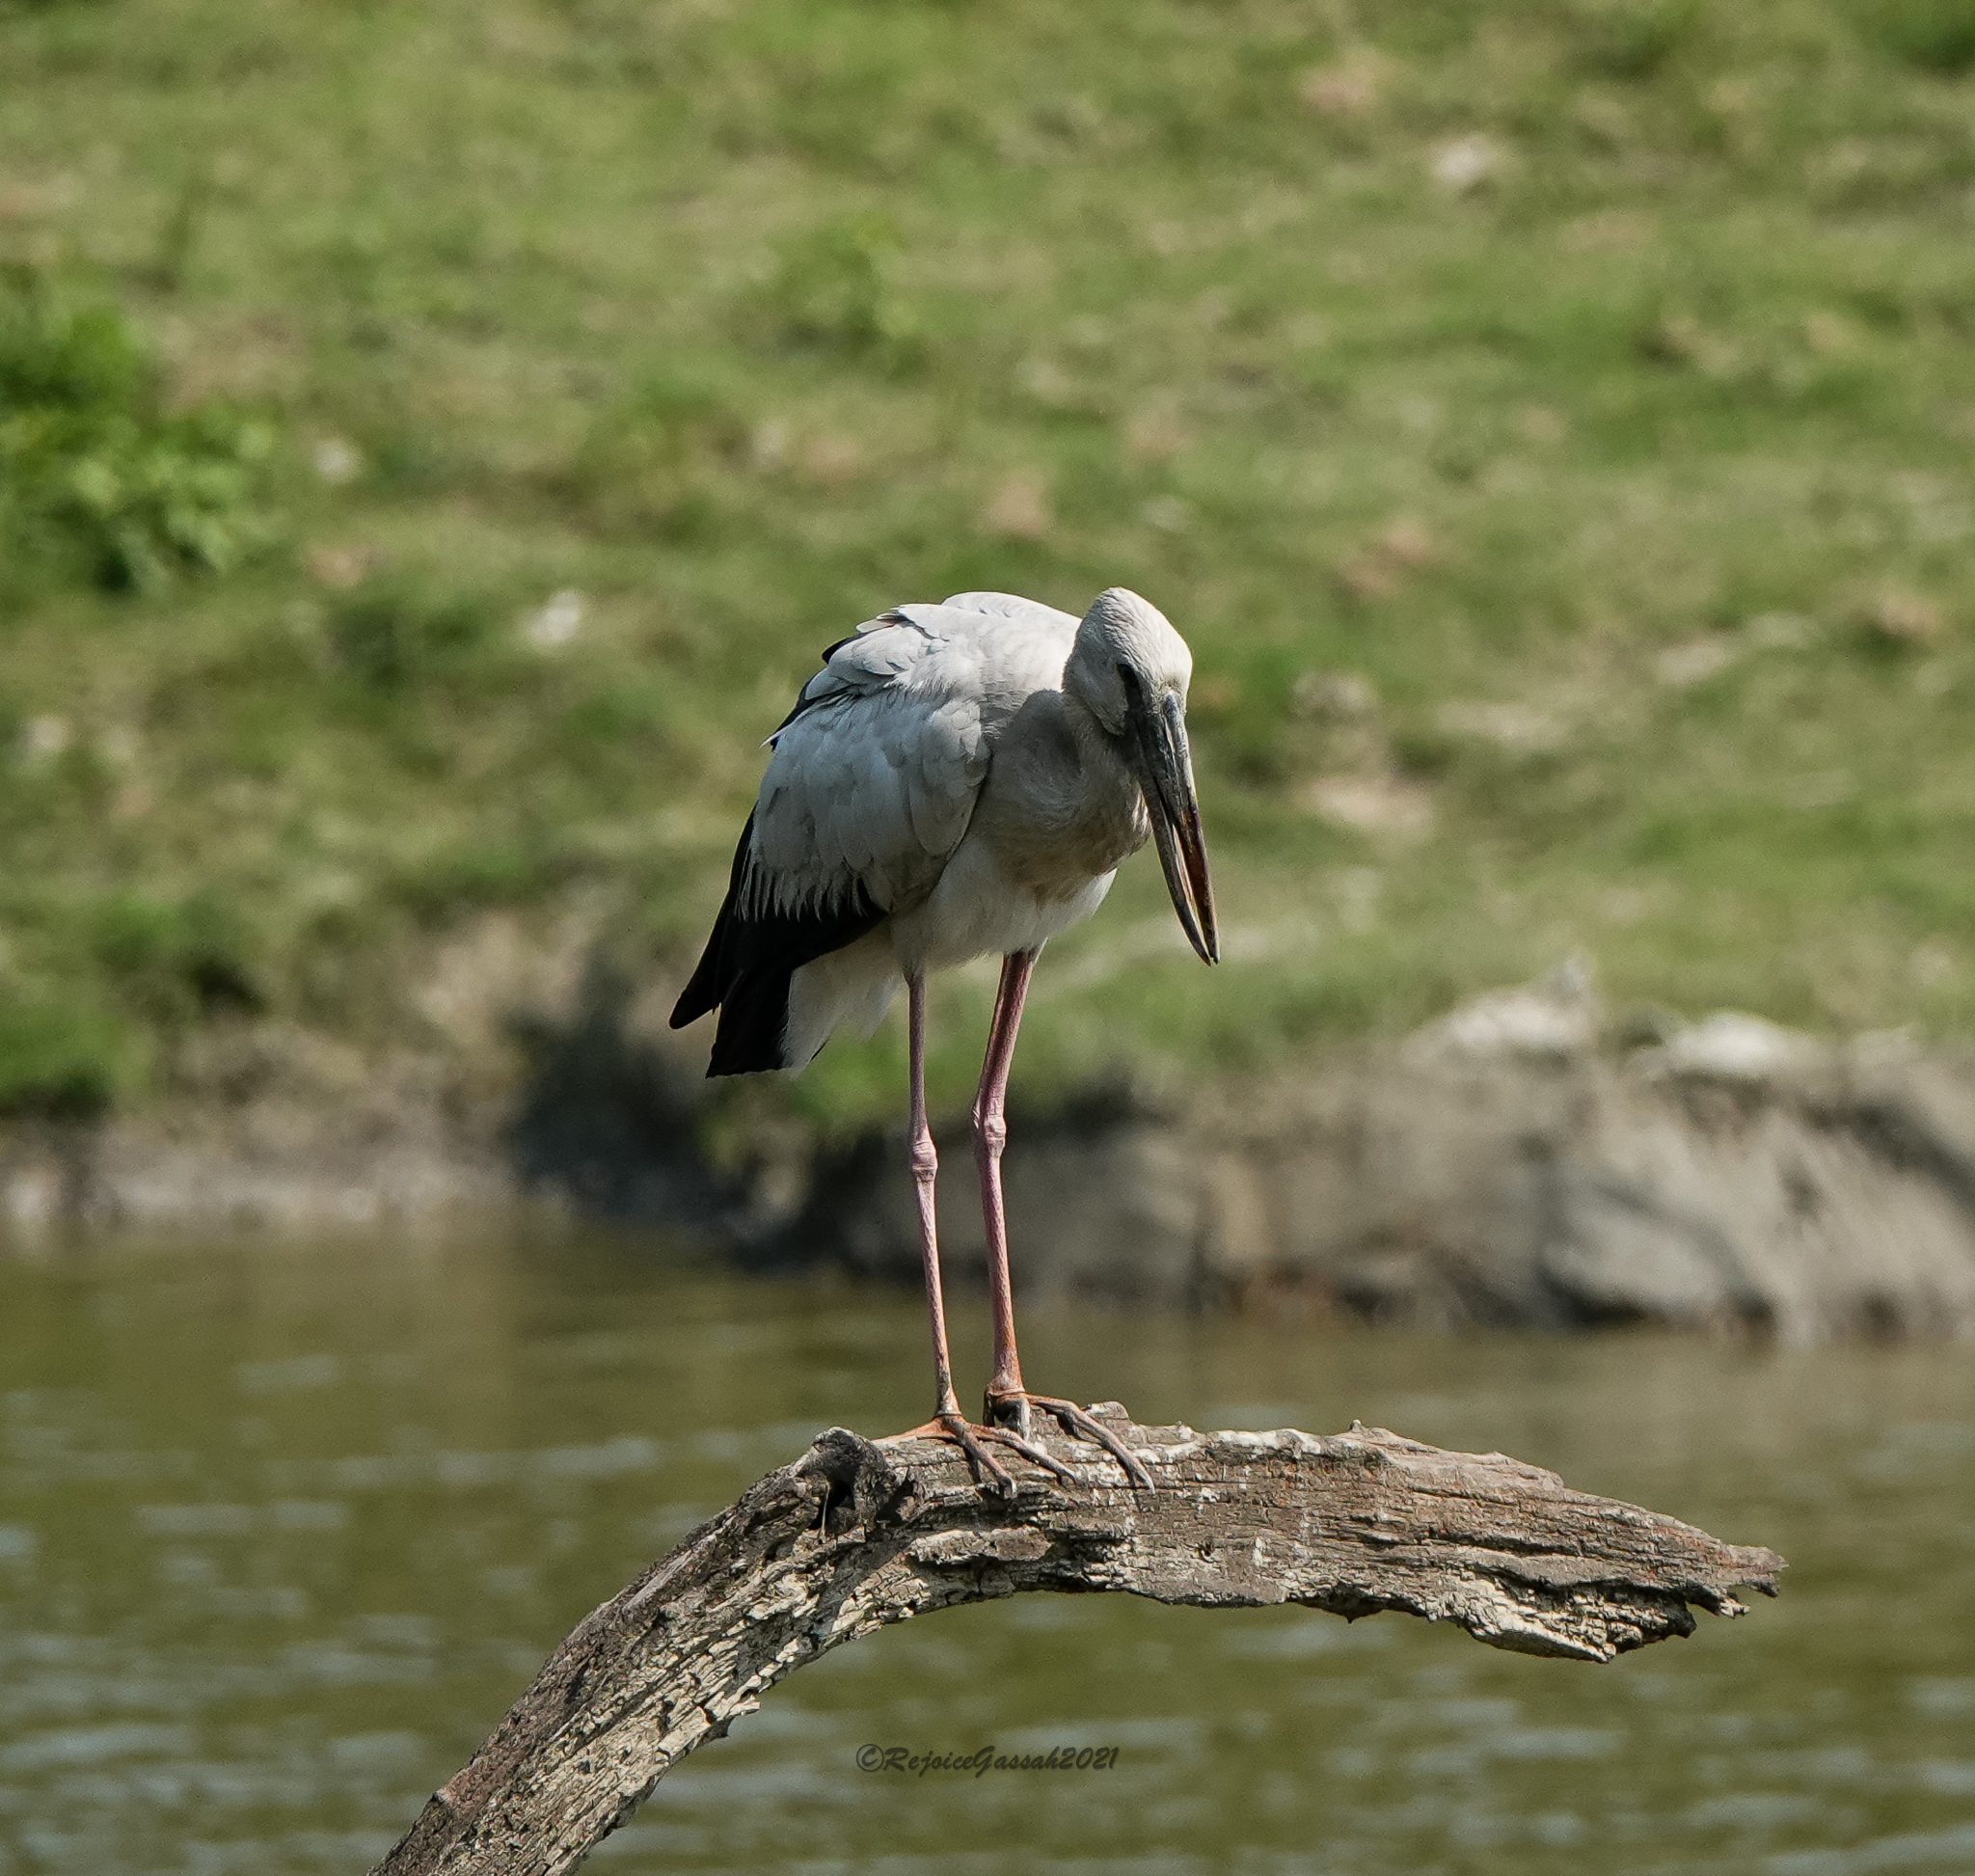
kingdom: Animalia
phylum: Chordata
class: Aves
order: Ciconiiformes
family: Ciconiidae
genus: Anastomus
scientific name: Anastomus oscitans
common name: Asian openbill
